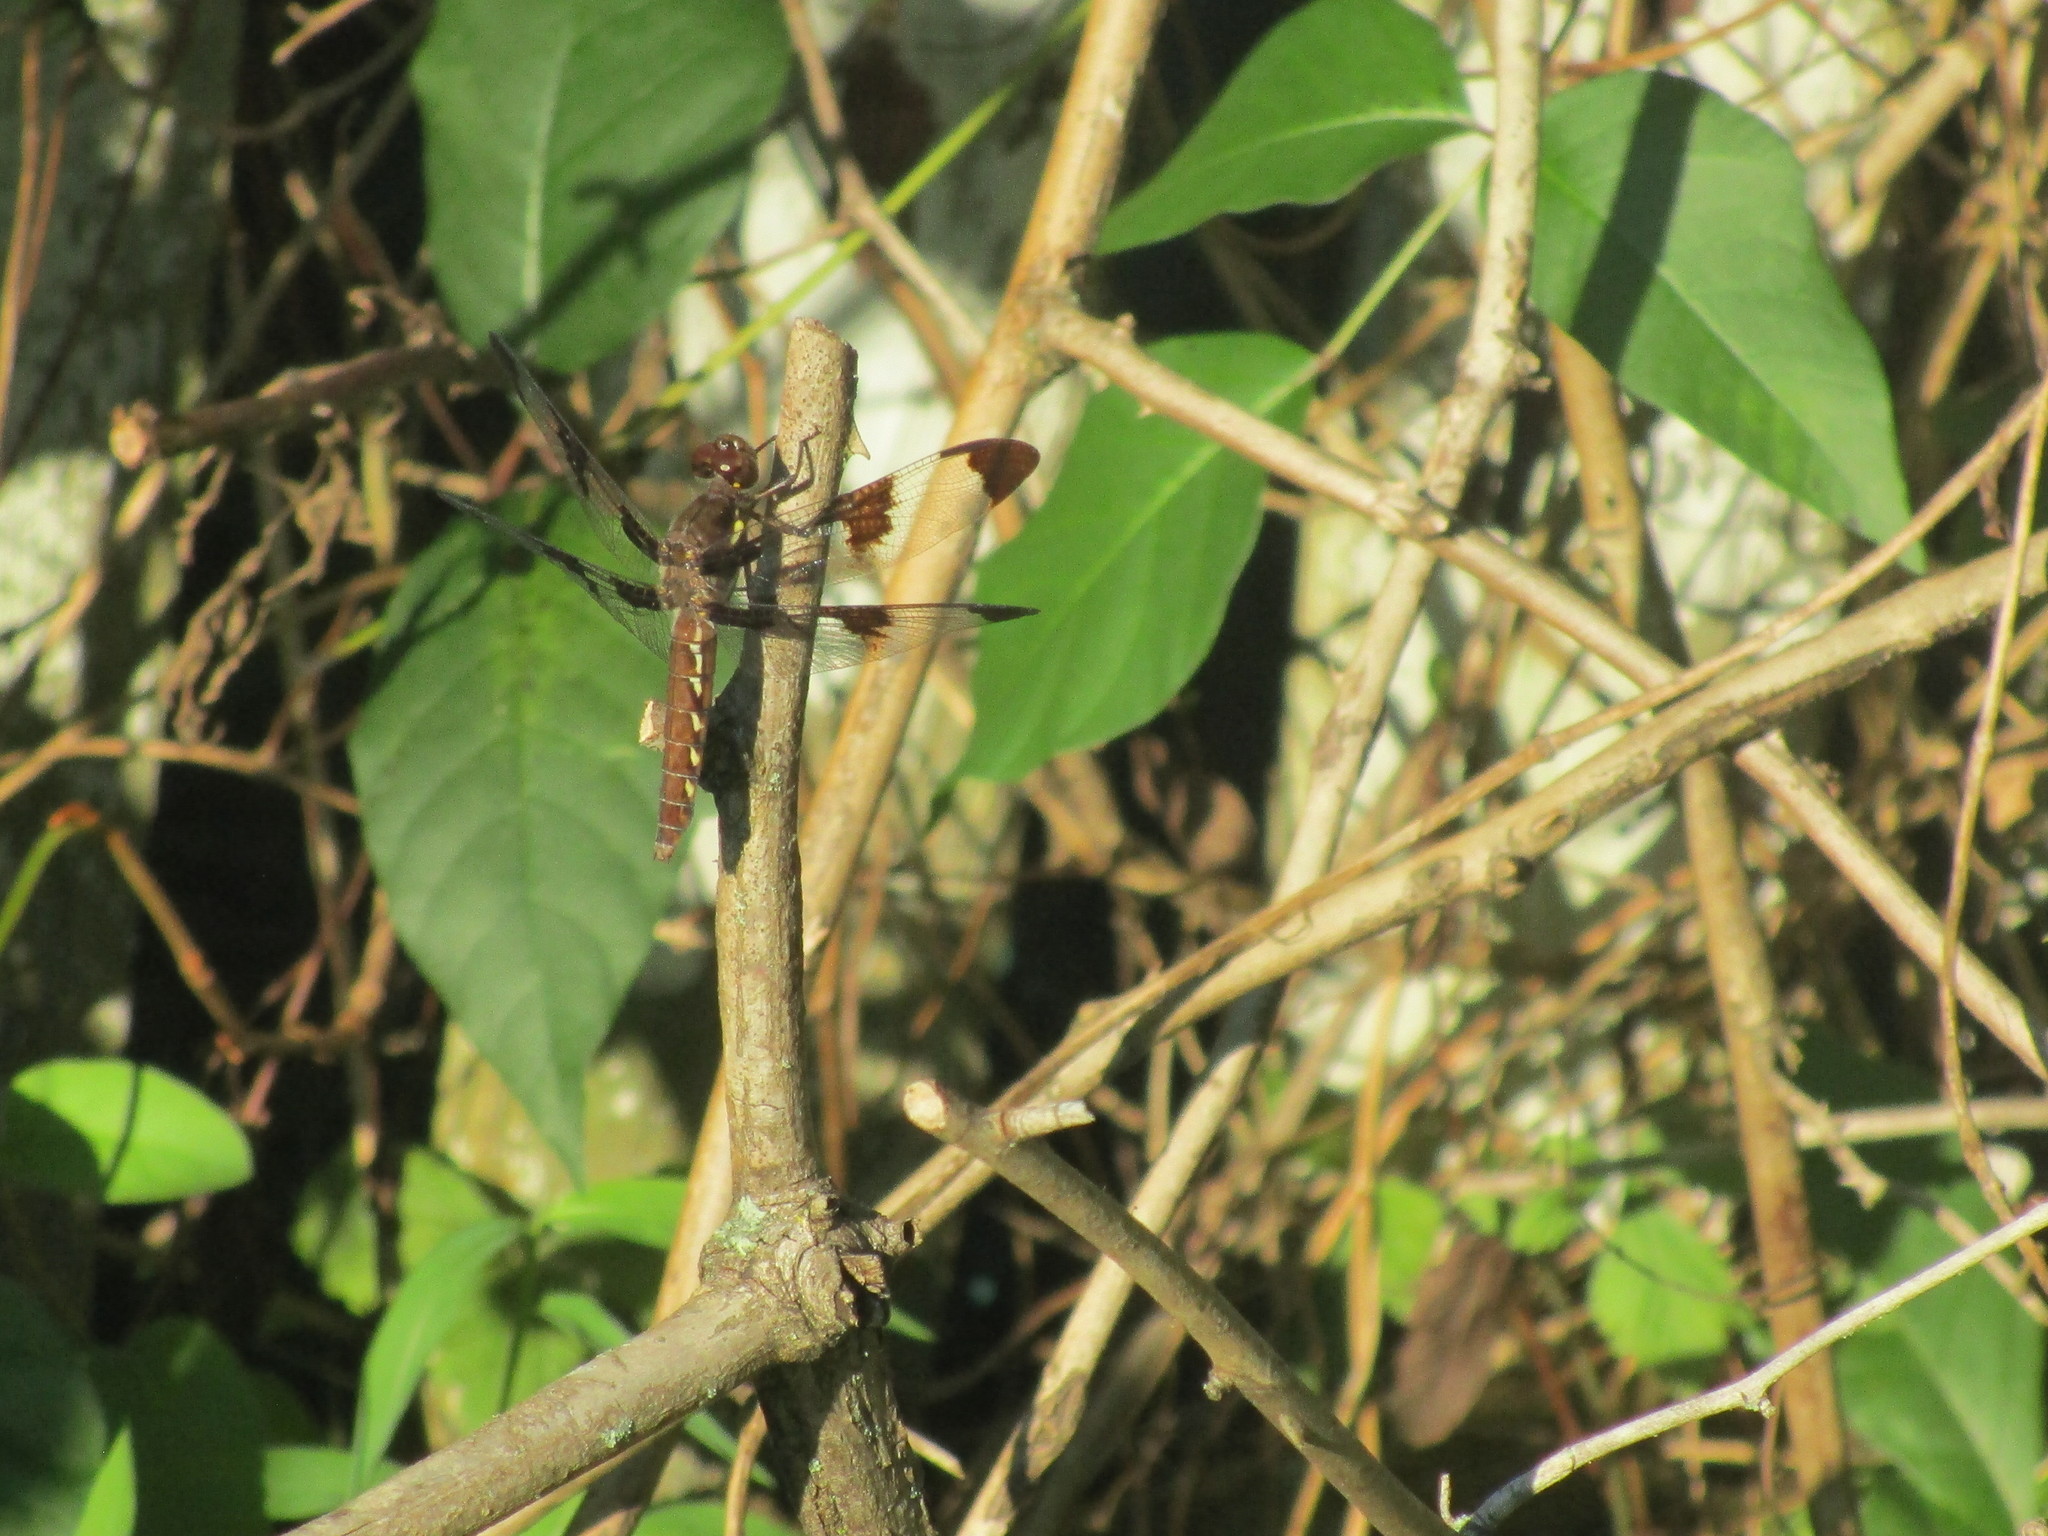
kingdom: Animalia
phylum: Arthropoda
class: Insecta
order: Odonata
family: Libellulidae
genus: Plathemis
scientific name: Plathemis lydia
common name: Common whitetail
